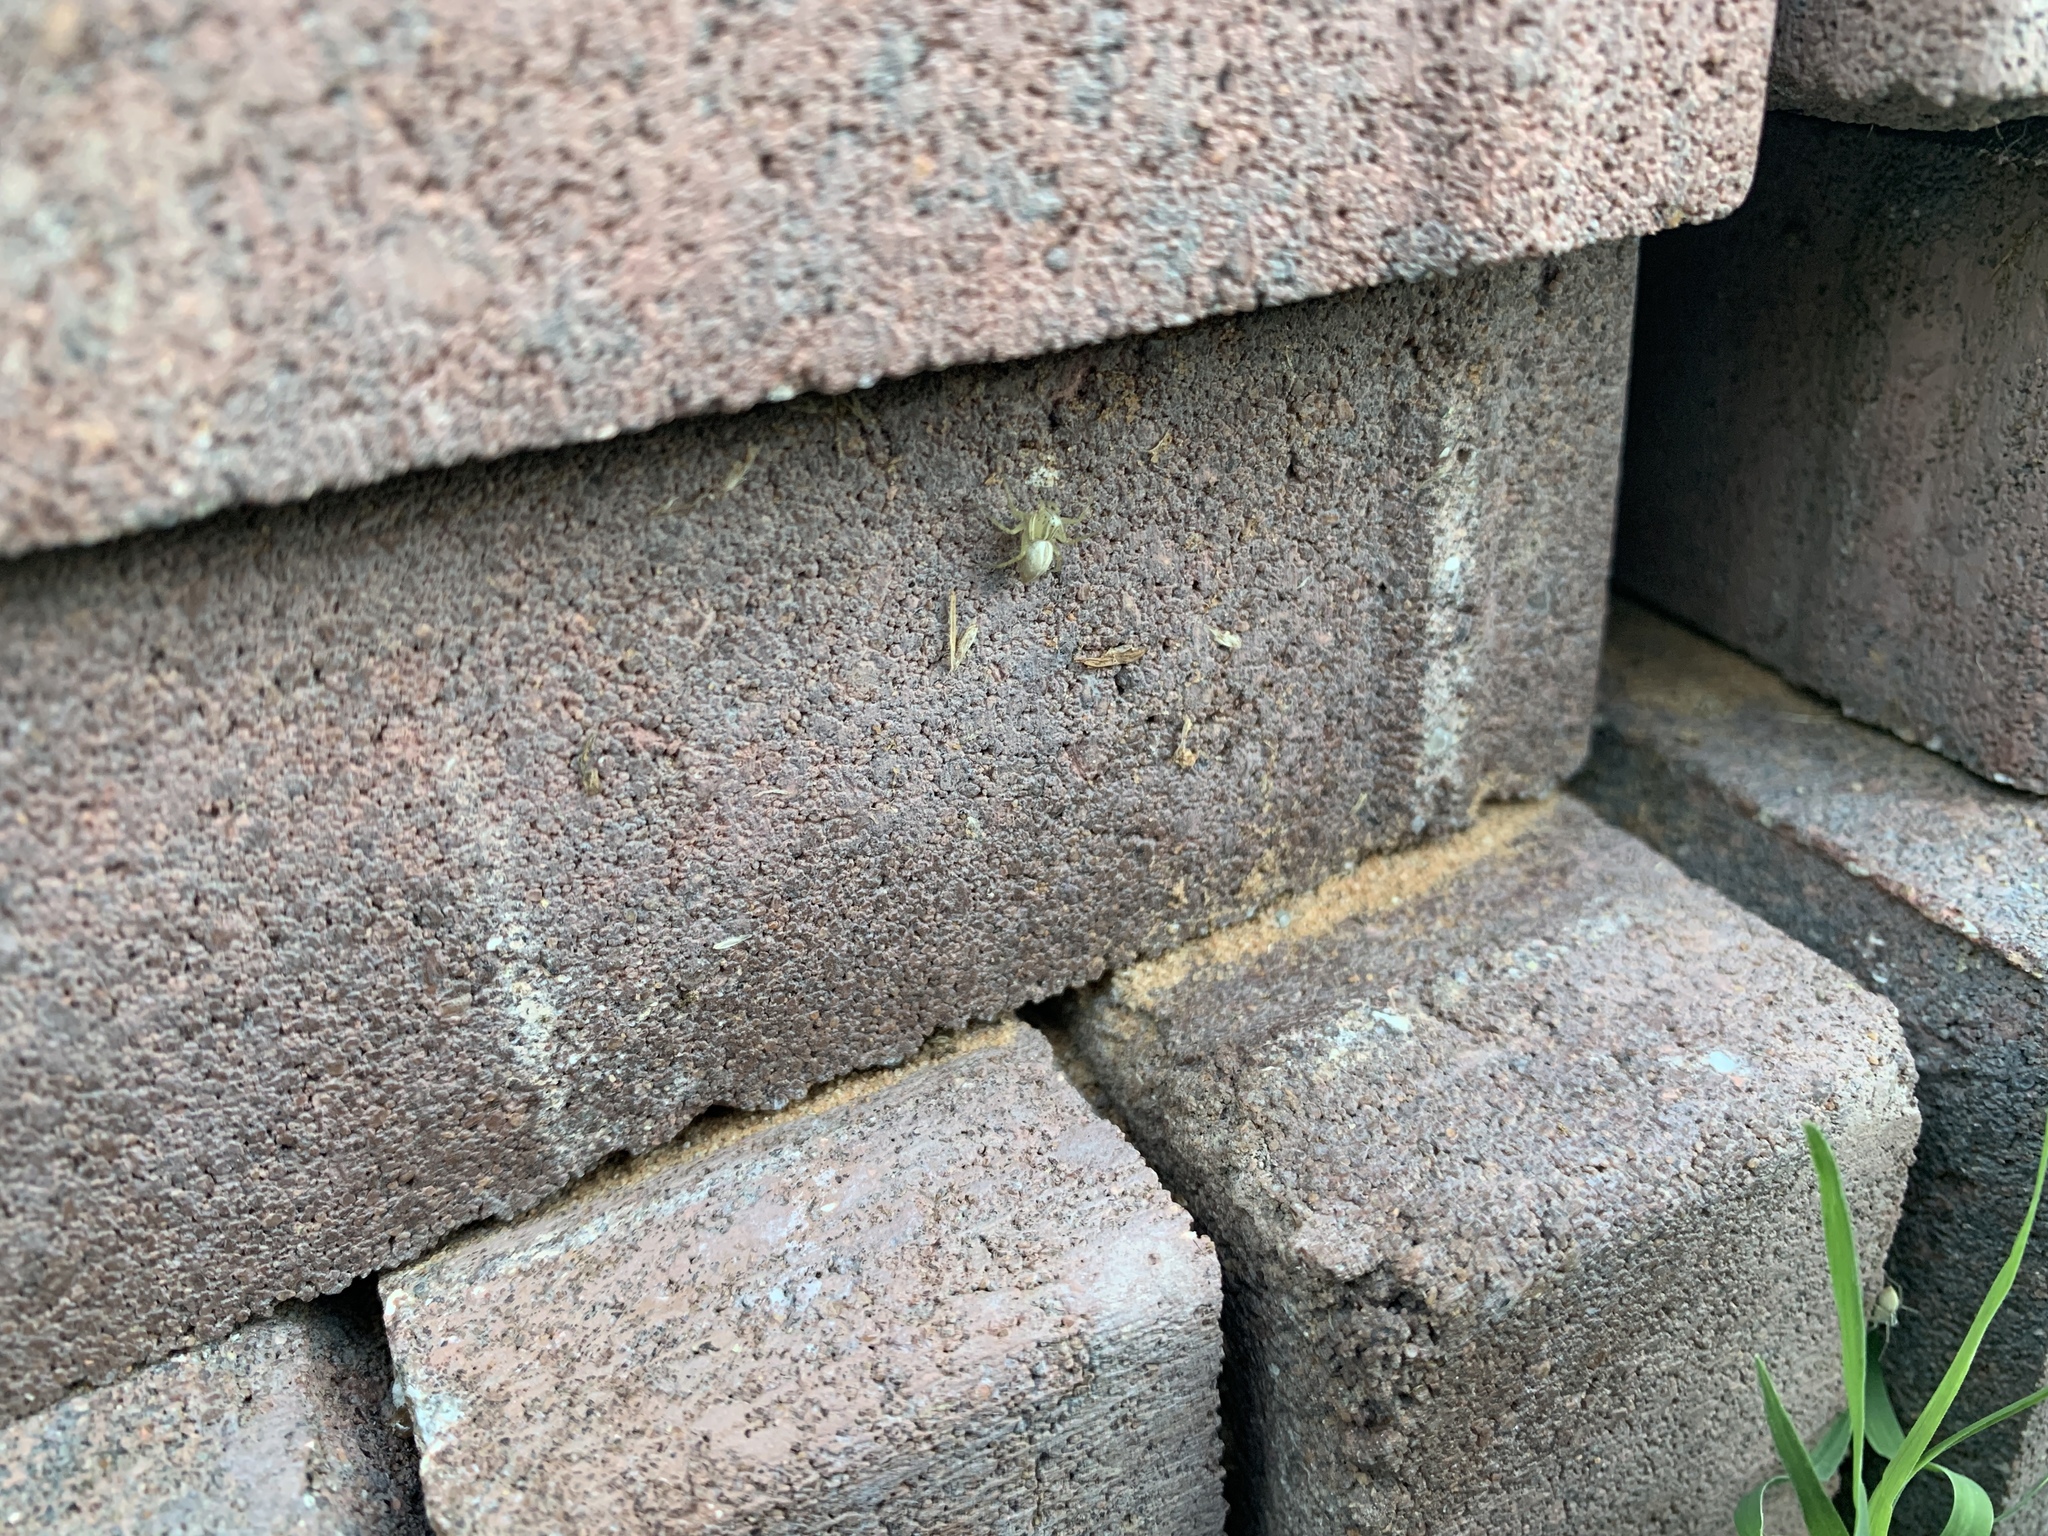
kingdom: Animalia
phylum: Arthropoda
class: Arachnida
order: Araneae
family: Oxyopidae
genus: Oxyopes
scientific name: Oxyopes salticus
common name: Lynx spiders
